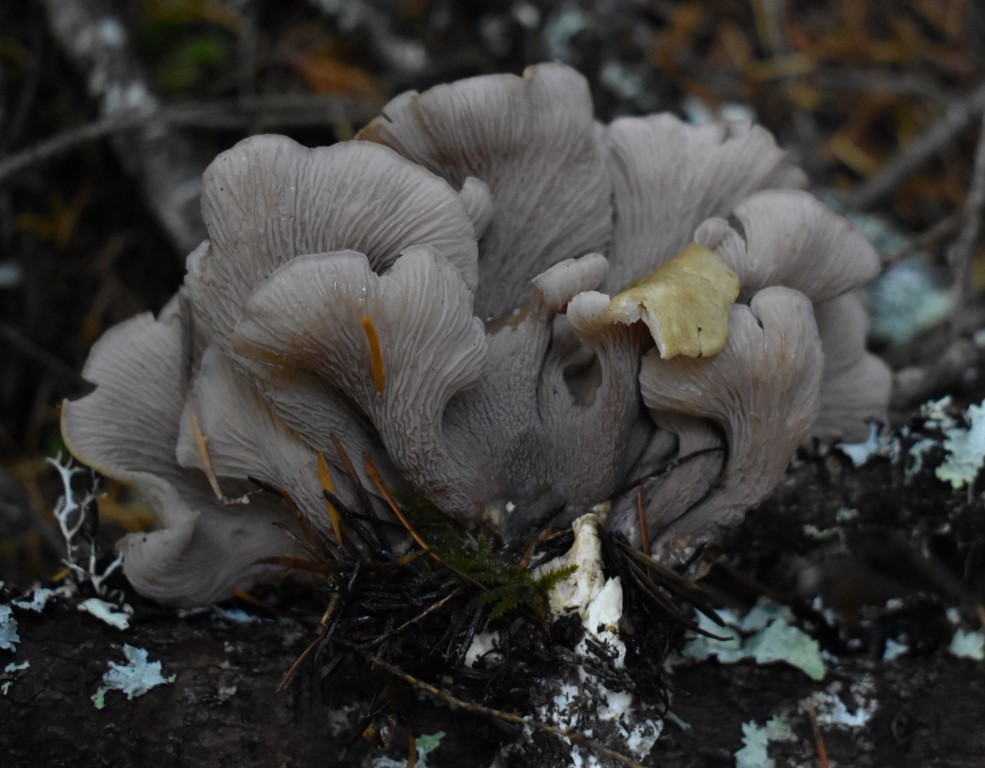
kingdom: Fungi
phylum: Basidiomycota
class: Agaricomycetes
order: Gomphales
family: Gomphaceae
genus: Gomphus
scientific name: Gomphus clavatus
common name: Pig's ear
